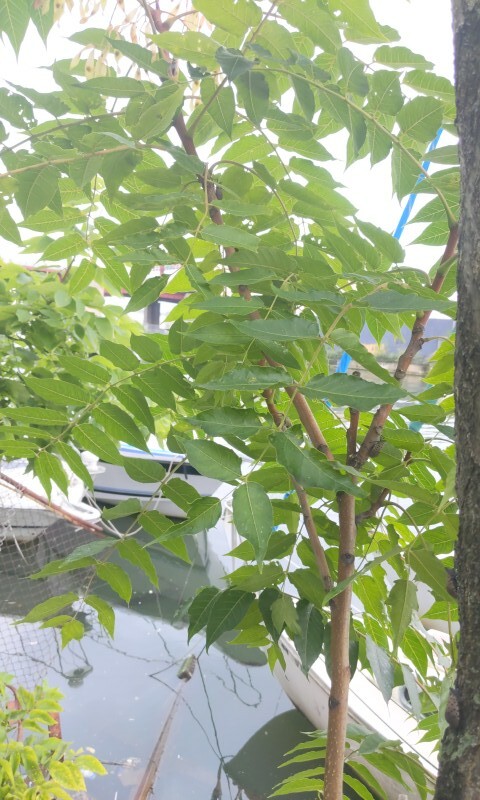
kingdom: Plantae
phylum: Tracheophyta
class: Magnoliopsida
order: Sapindales
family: Simaroubaceae
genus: Ailanthus
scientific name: Ailanthus altissima
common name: Tree-of-heaven
